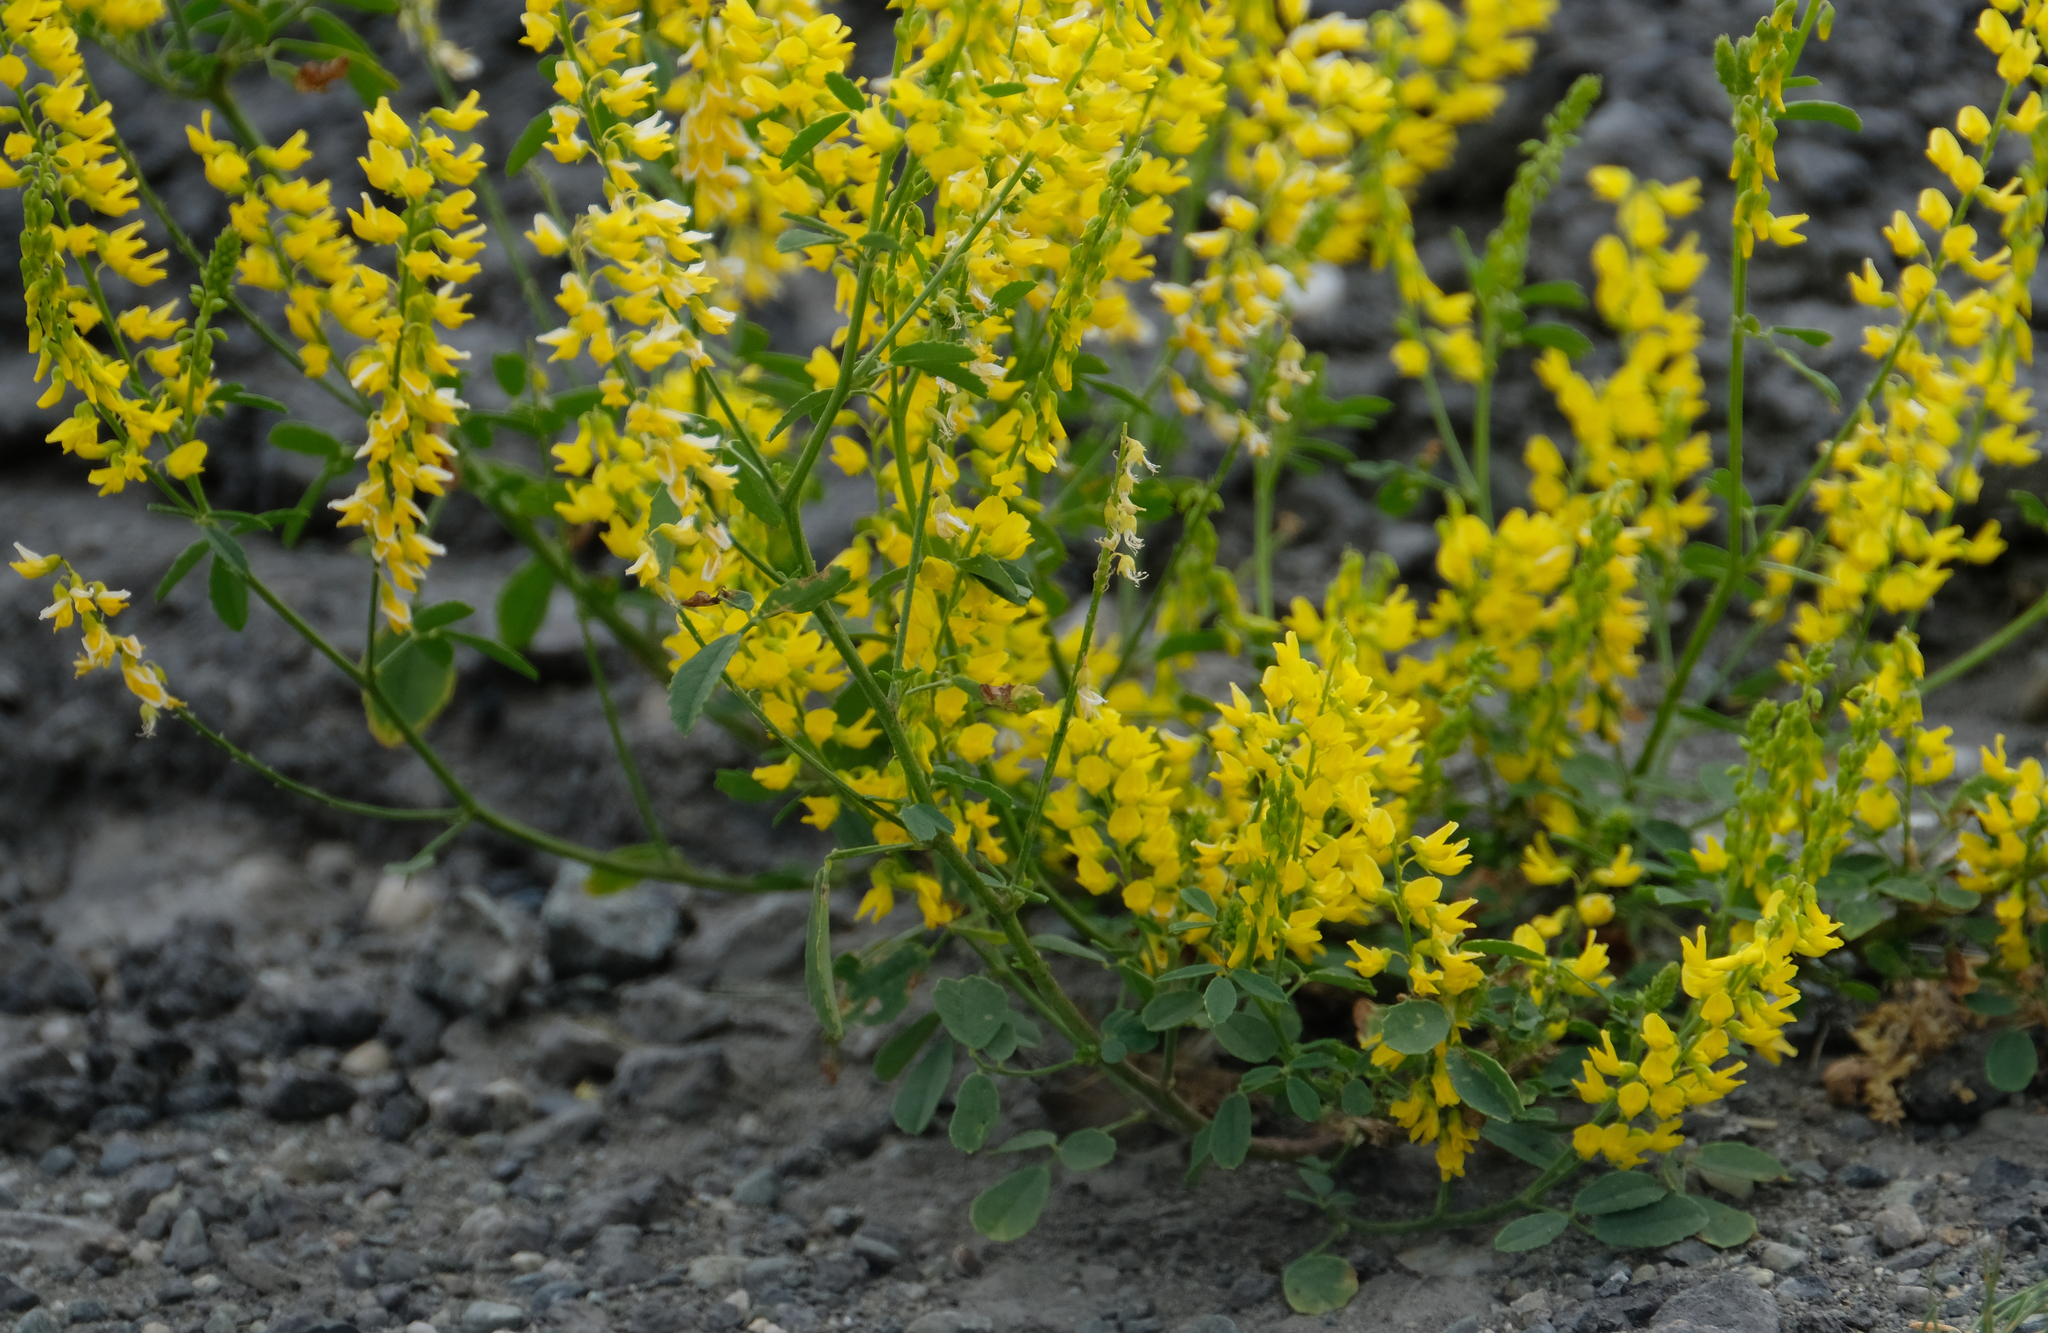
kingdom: Plantae
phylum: Tracheophyta
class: Magnoliopsida
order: Fabales
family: Fabaceae
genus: Melilotus
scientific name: Melilotus officinalis
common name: Sweetclover
